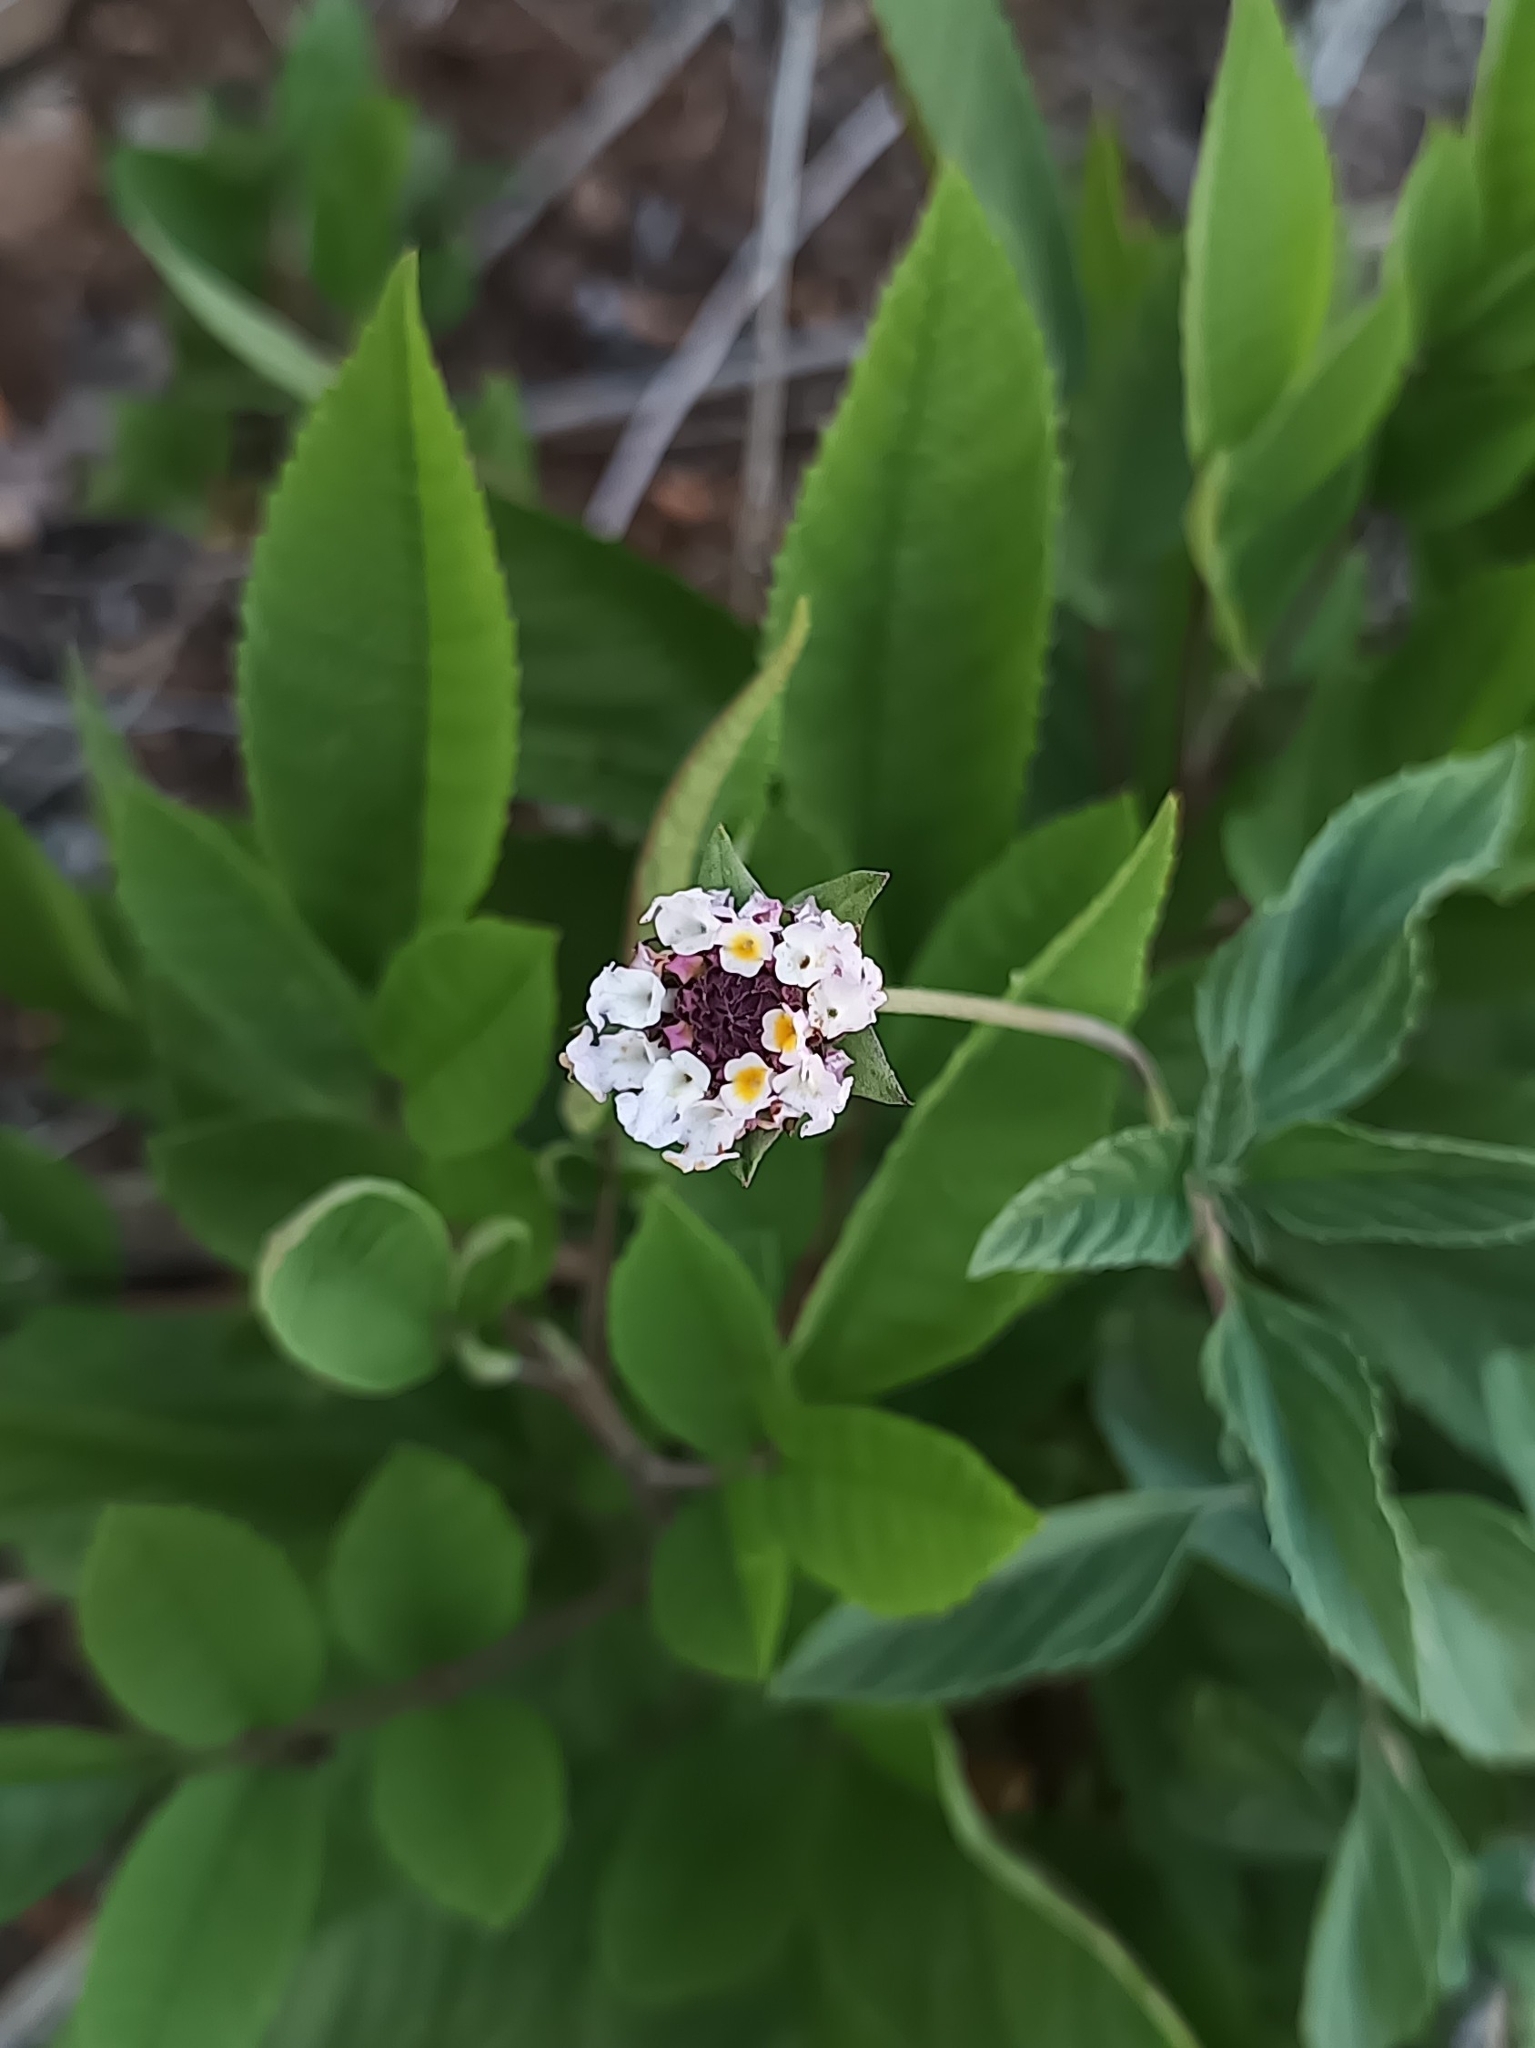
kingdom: Plantae
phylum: Tracheophyta
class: Magnoliopsida
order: Lamiales
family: Verbenaceae
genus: Phyla
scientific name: Phyla lanceolata
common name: Northern fogfruit
